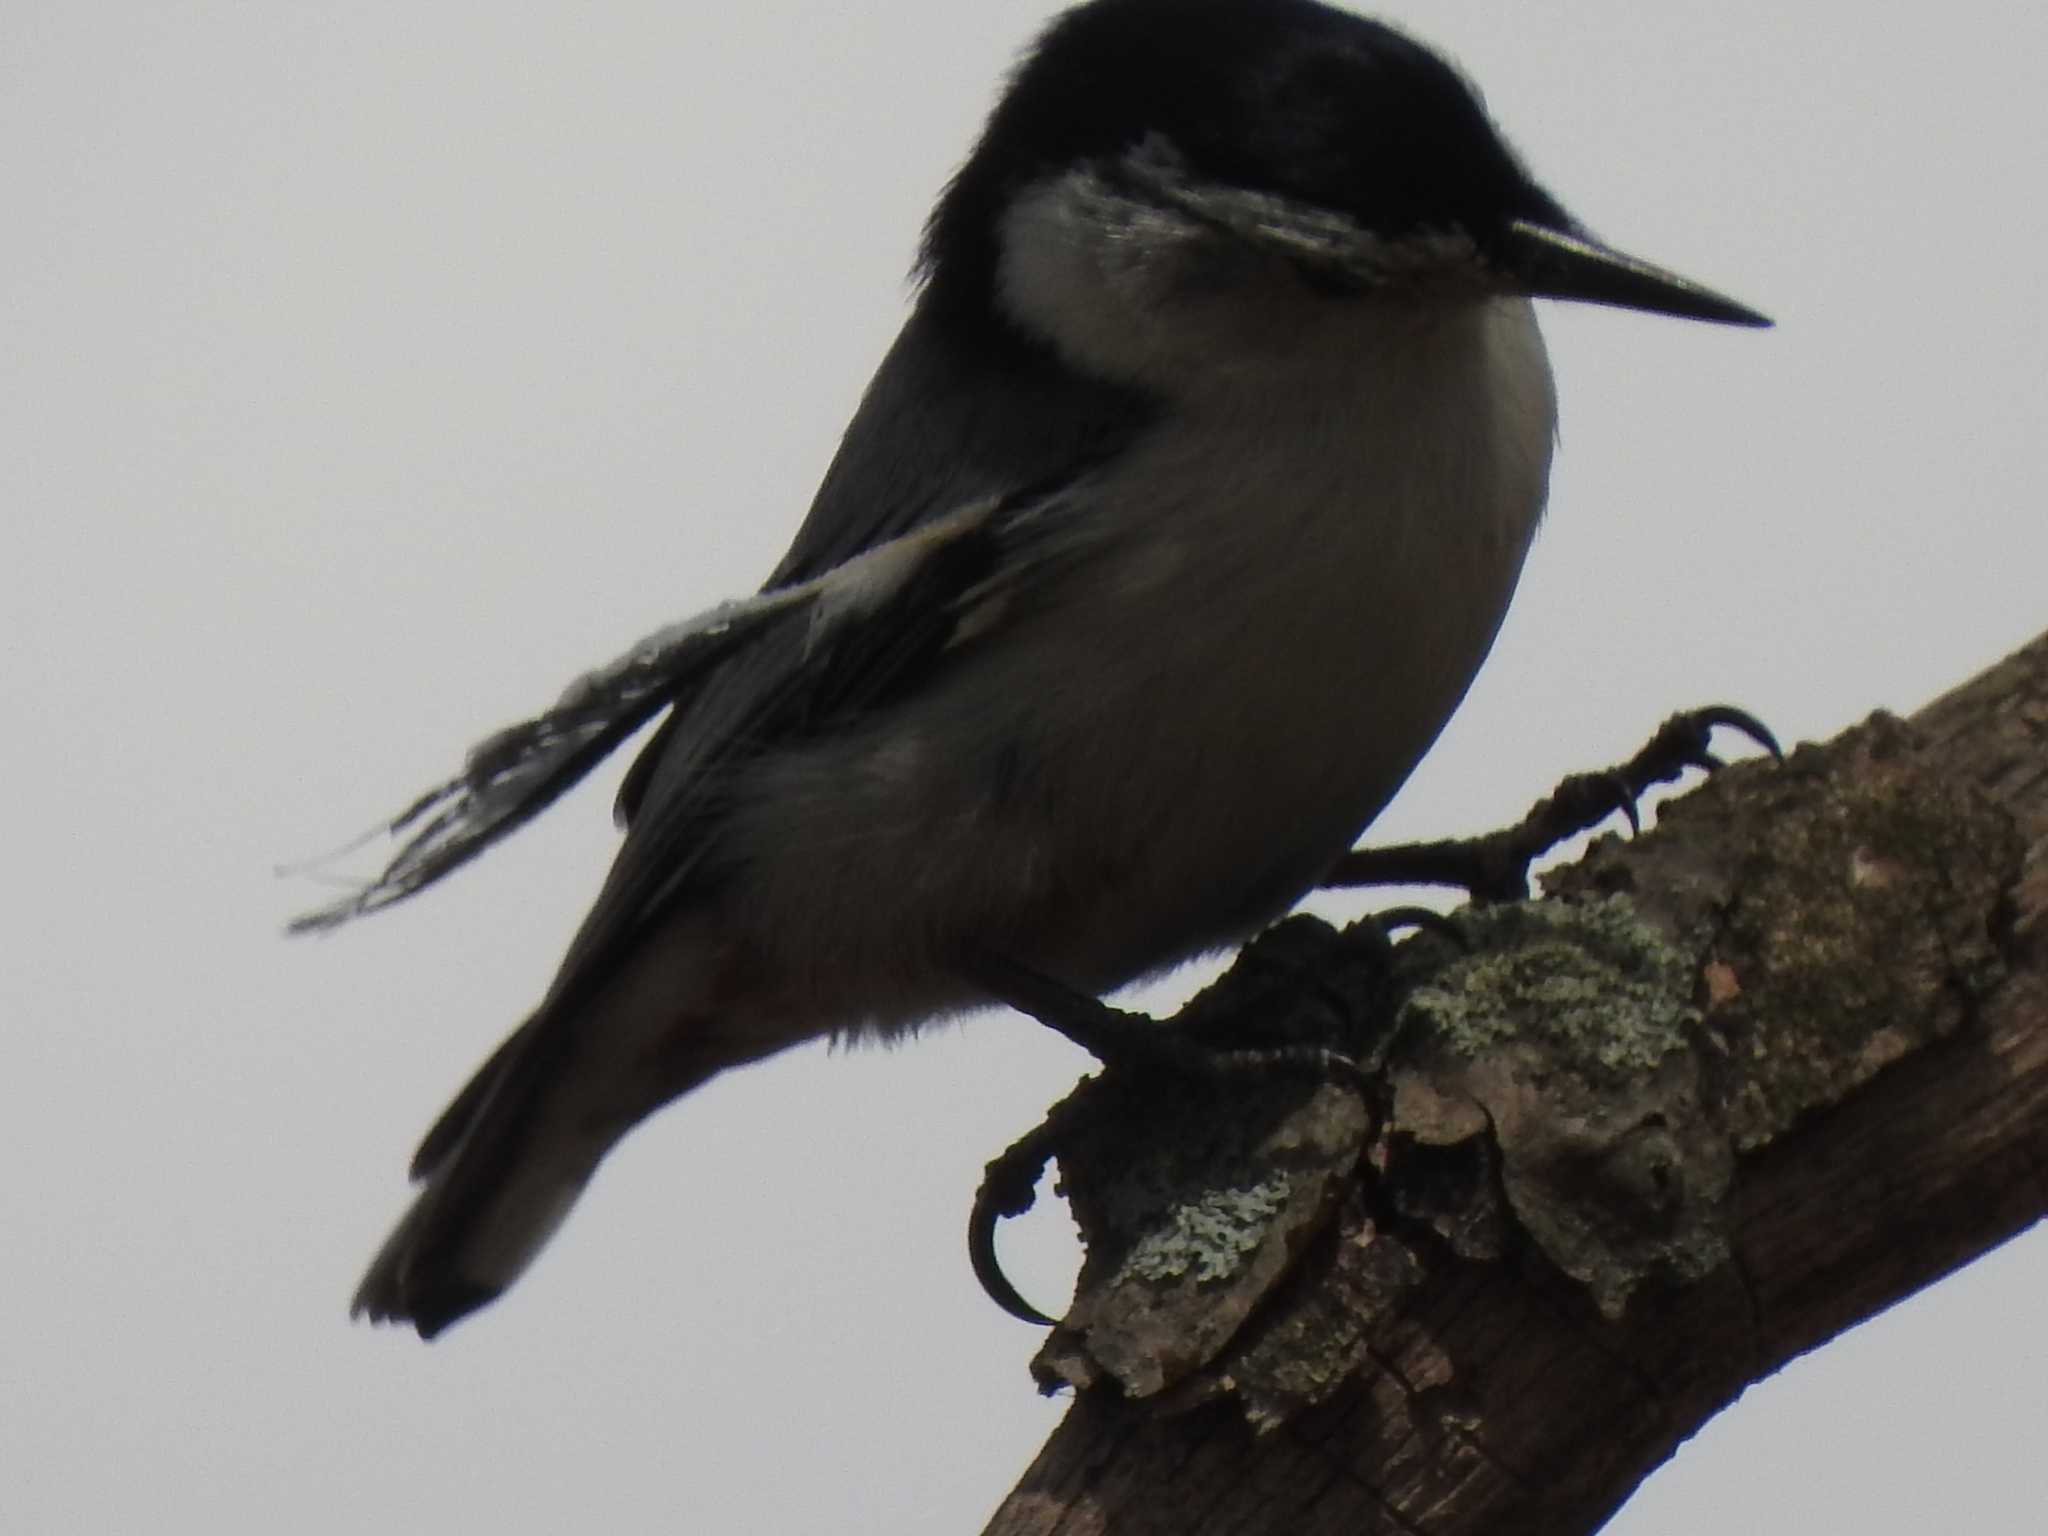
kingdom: Animalia
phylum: Chordata
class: Aves
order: Passeriformes
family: Sittidae
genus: Sitta
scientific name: Sitta carolinensis
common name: White-breasted nuthatch
